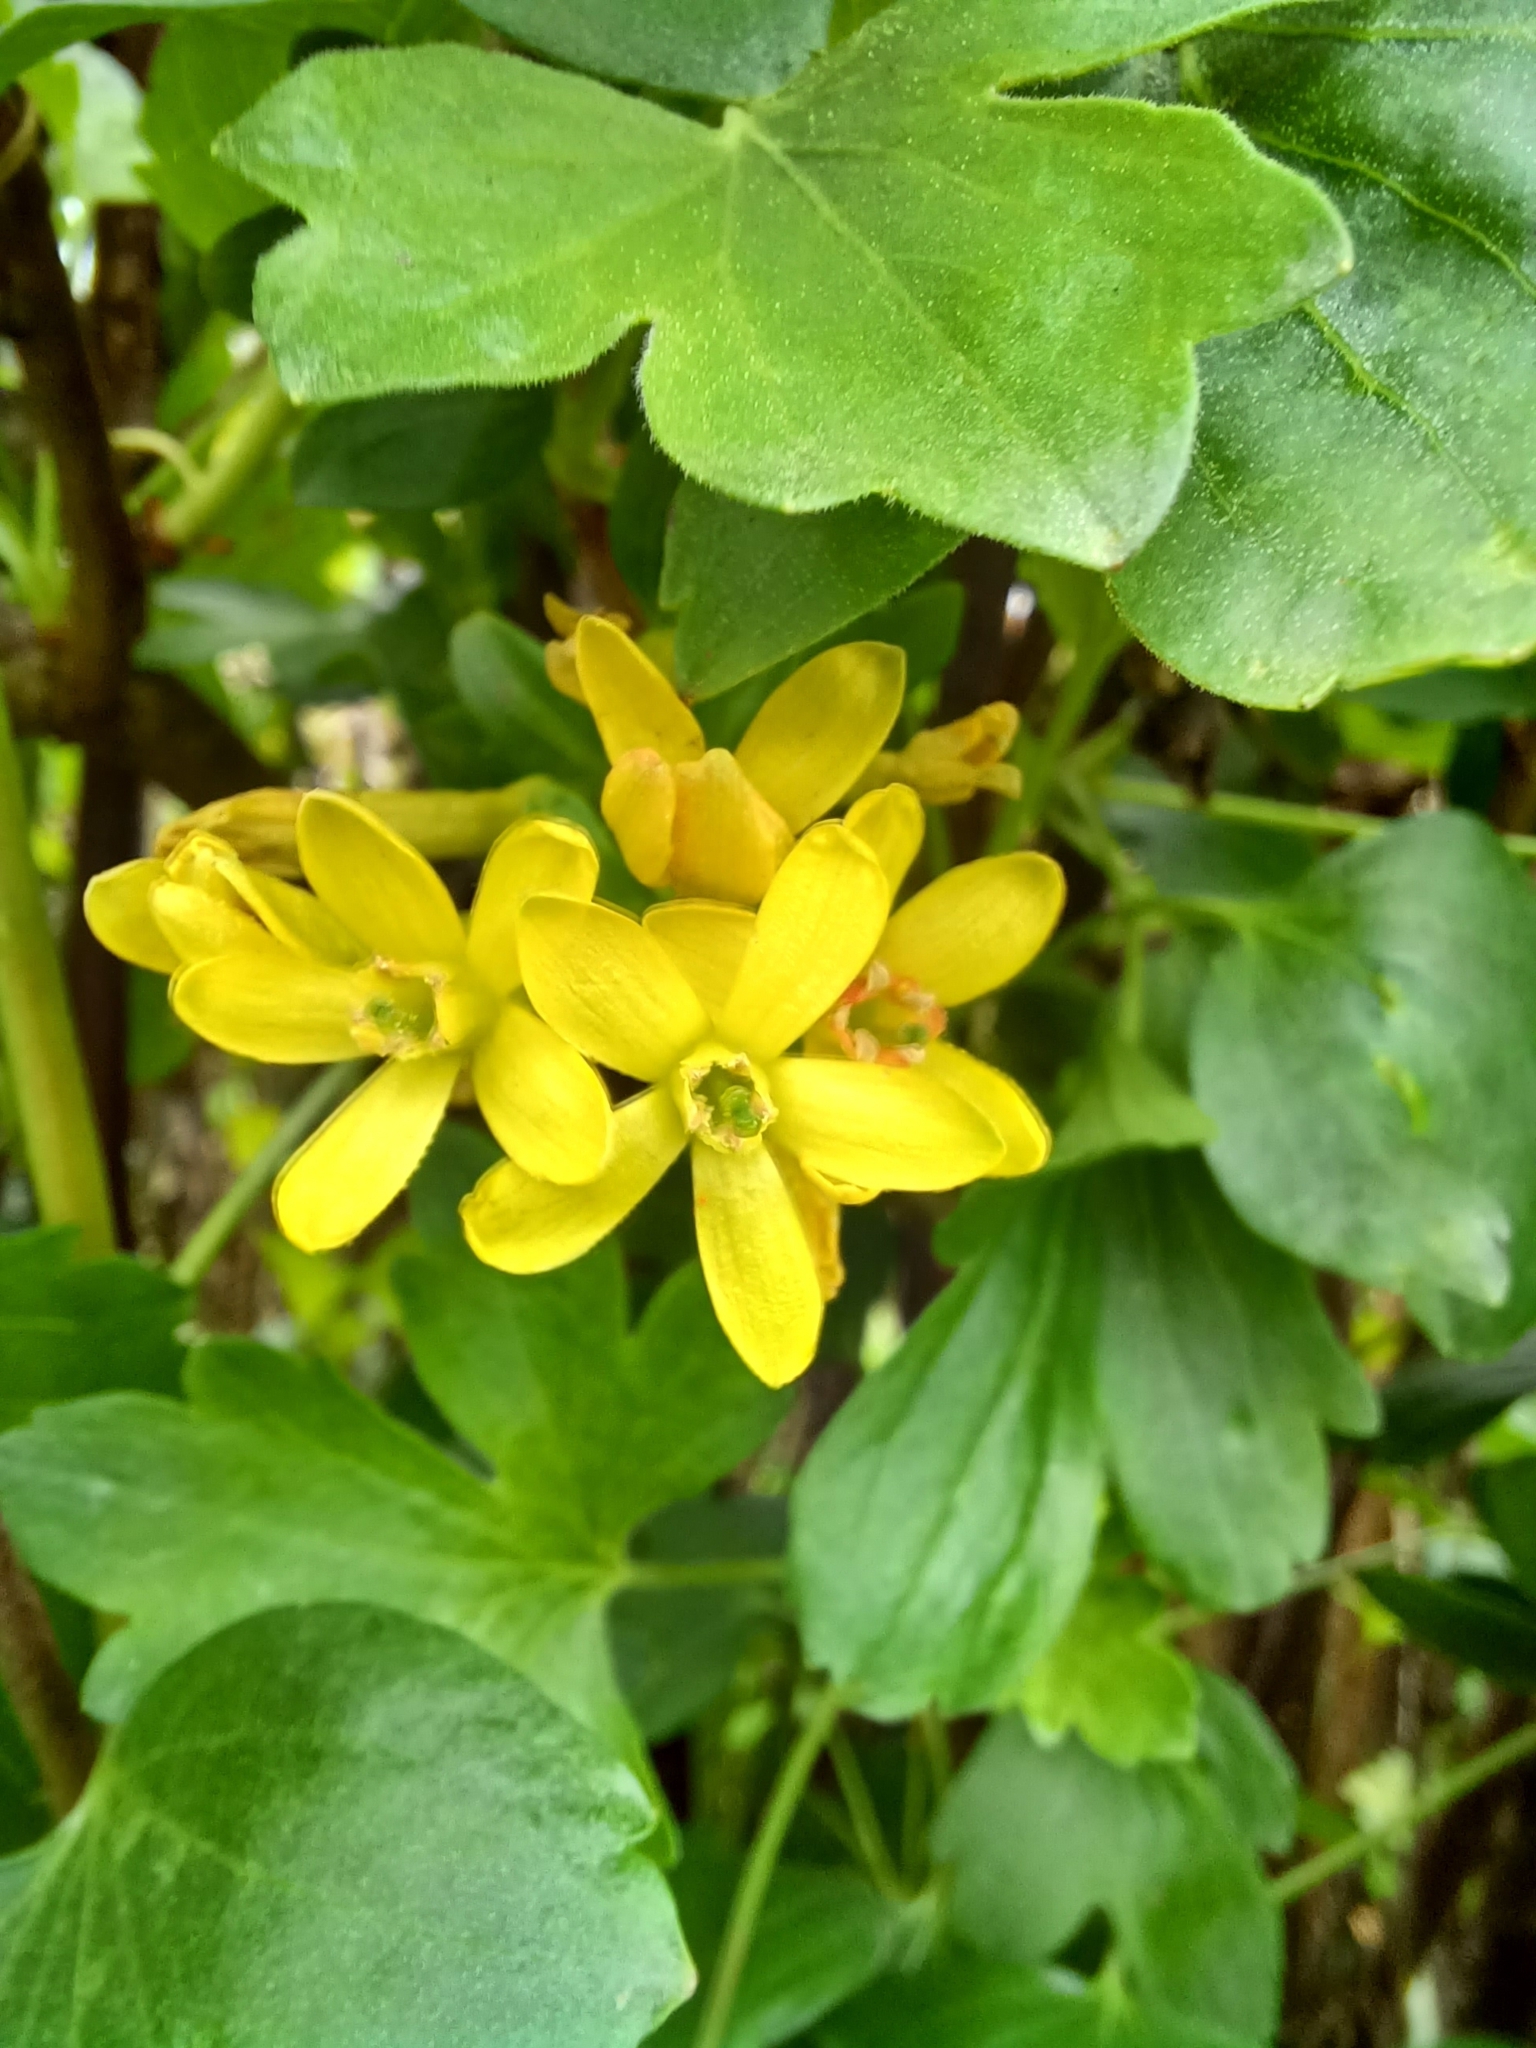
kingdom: Plantae
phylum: Tracheophyta
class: Magnoliopsida
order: Saxifragales
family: Grossulariaceae
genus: Ribes
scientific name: Ribes aureum
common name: Golden currant
